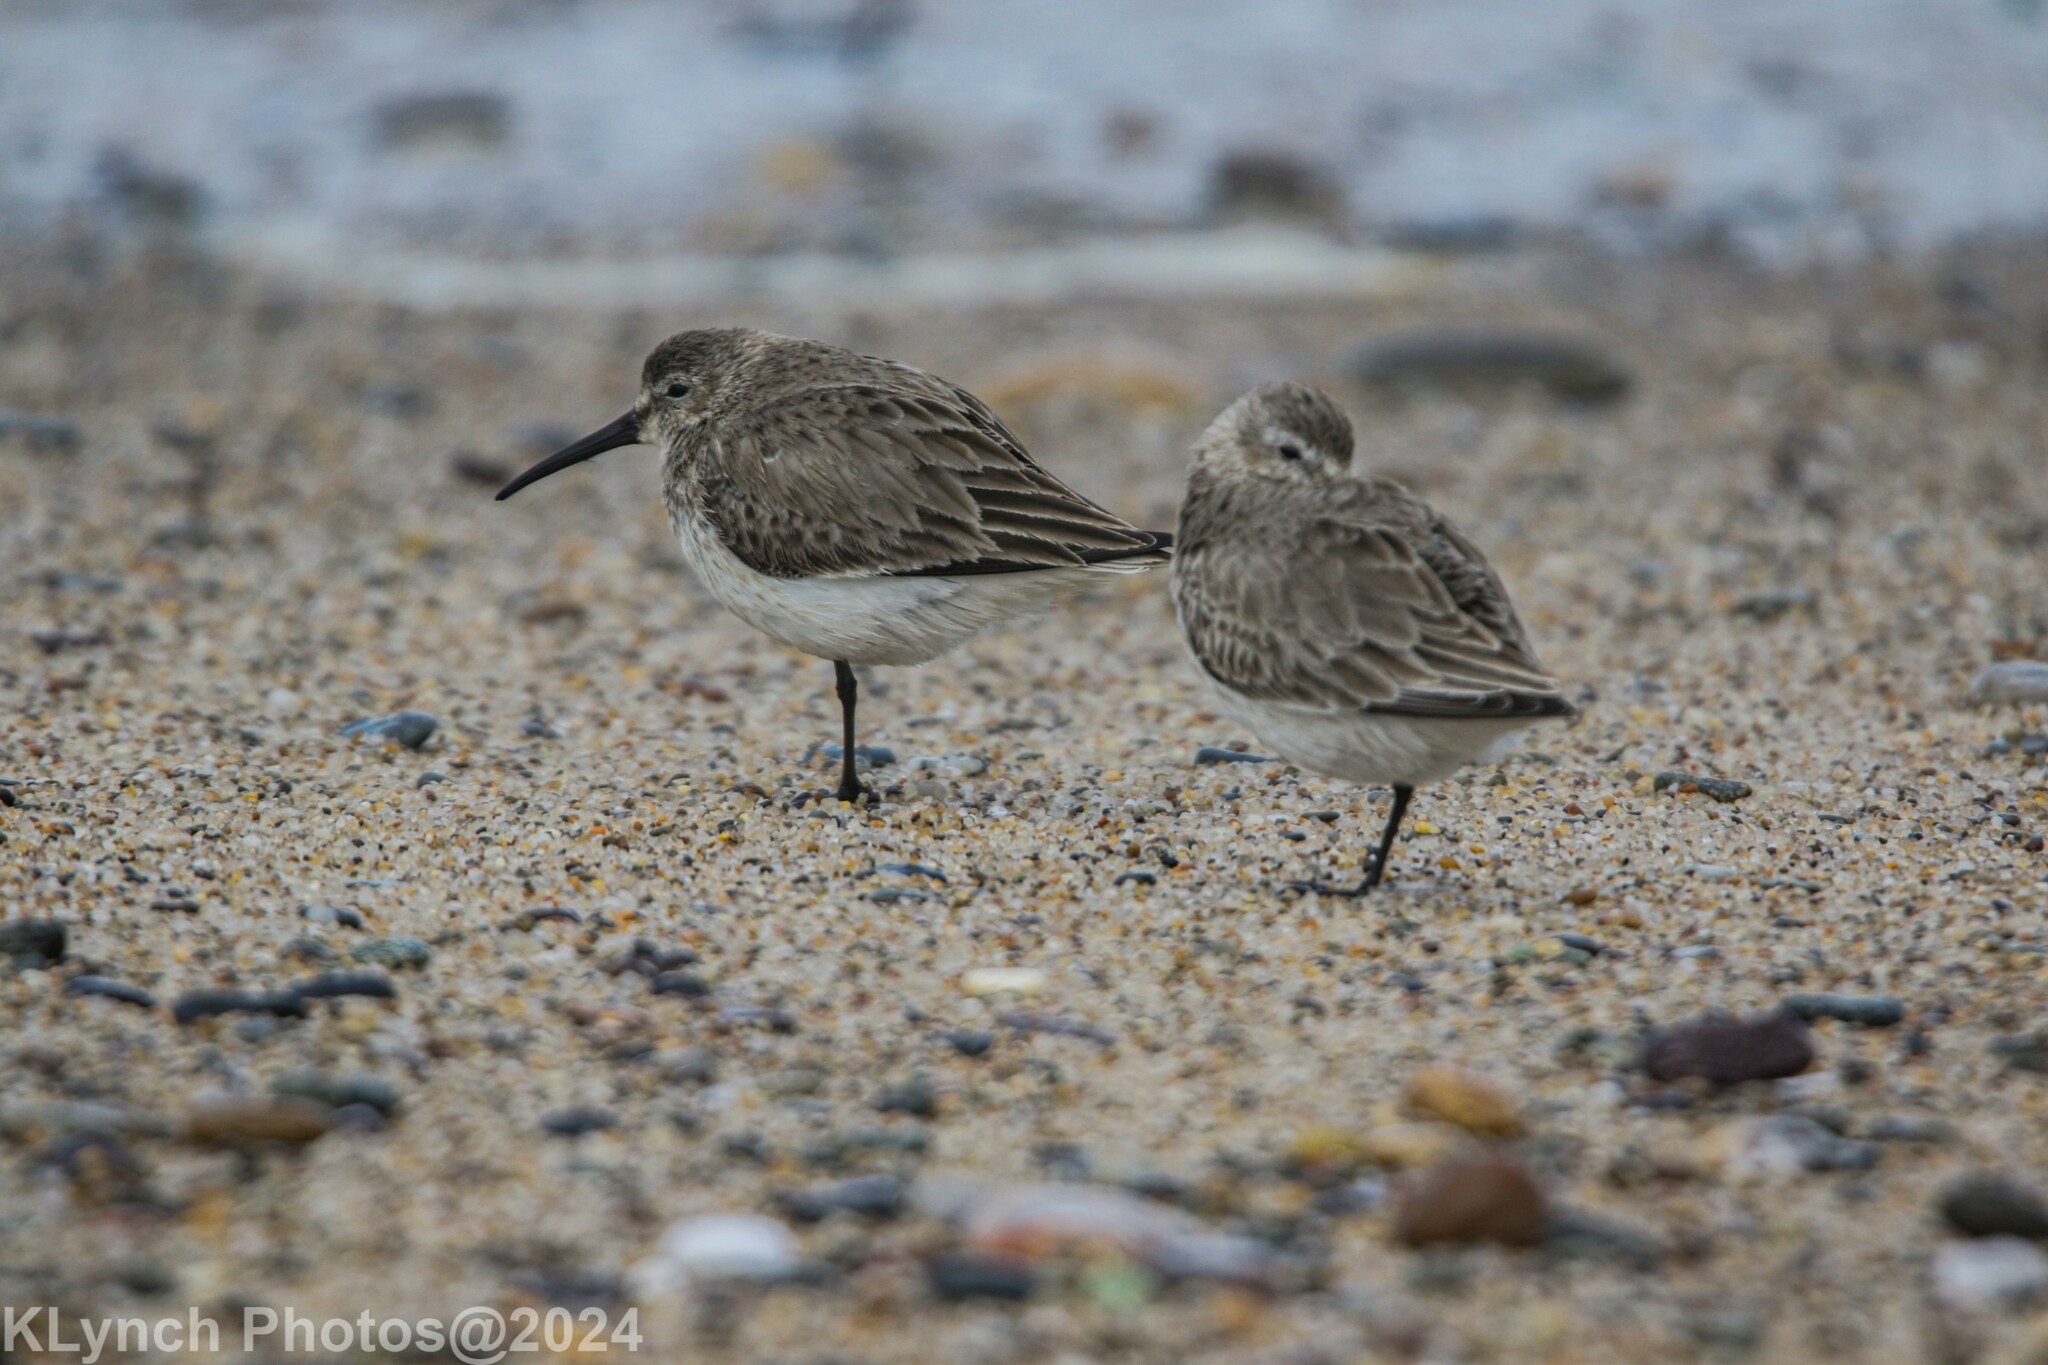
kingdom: Animalia
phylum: Chordata
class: Aves
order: Charadriiformes
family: Scolopacidae
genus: Calidris
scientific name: Calidris alpina
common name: Dunlin
